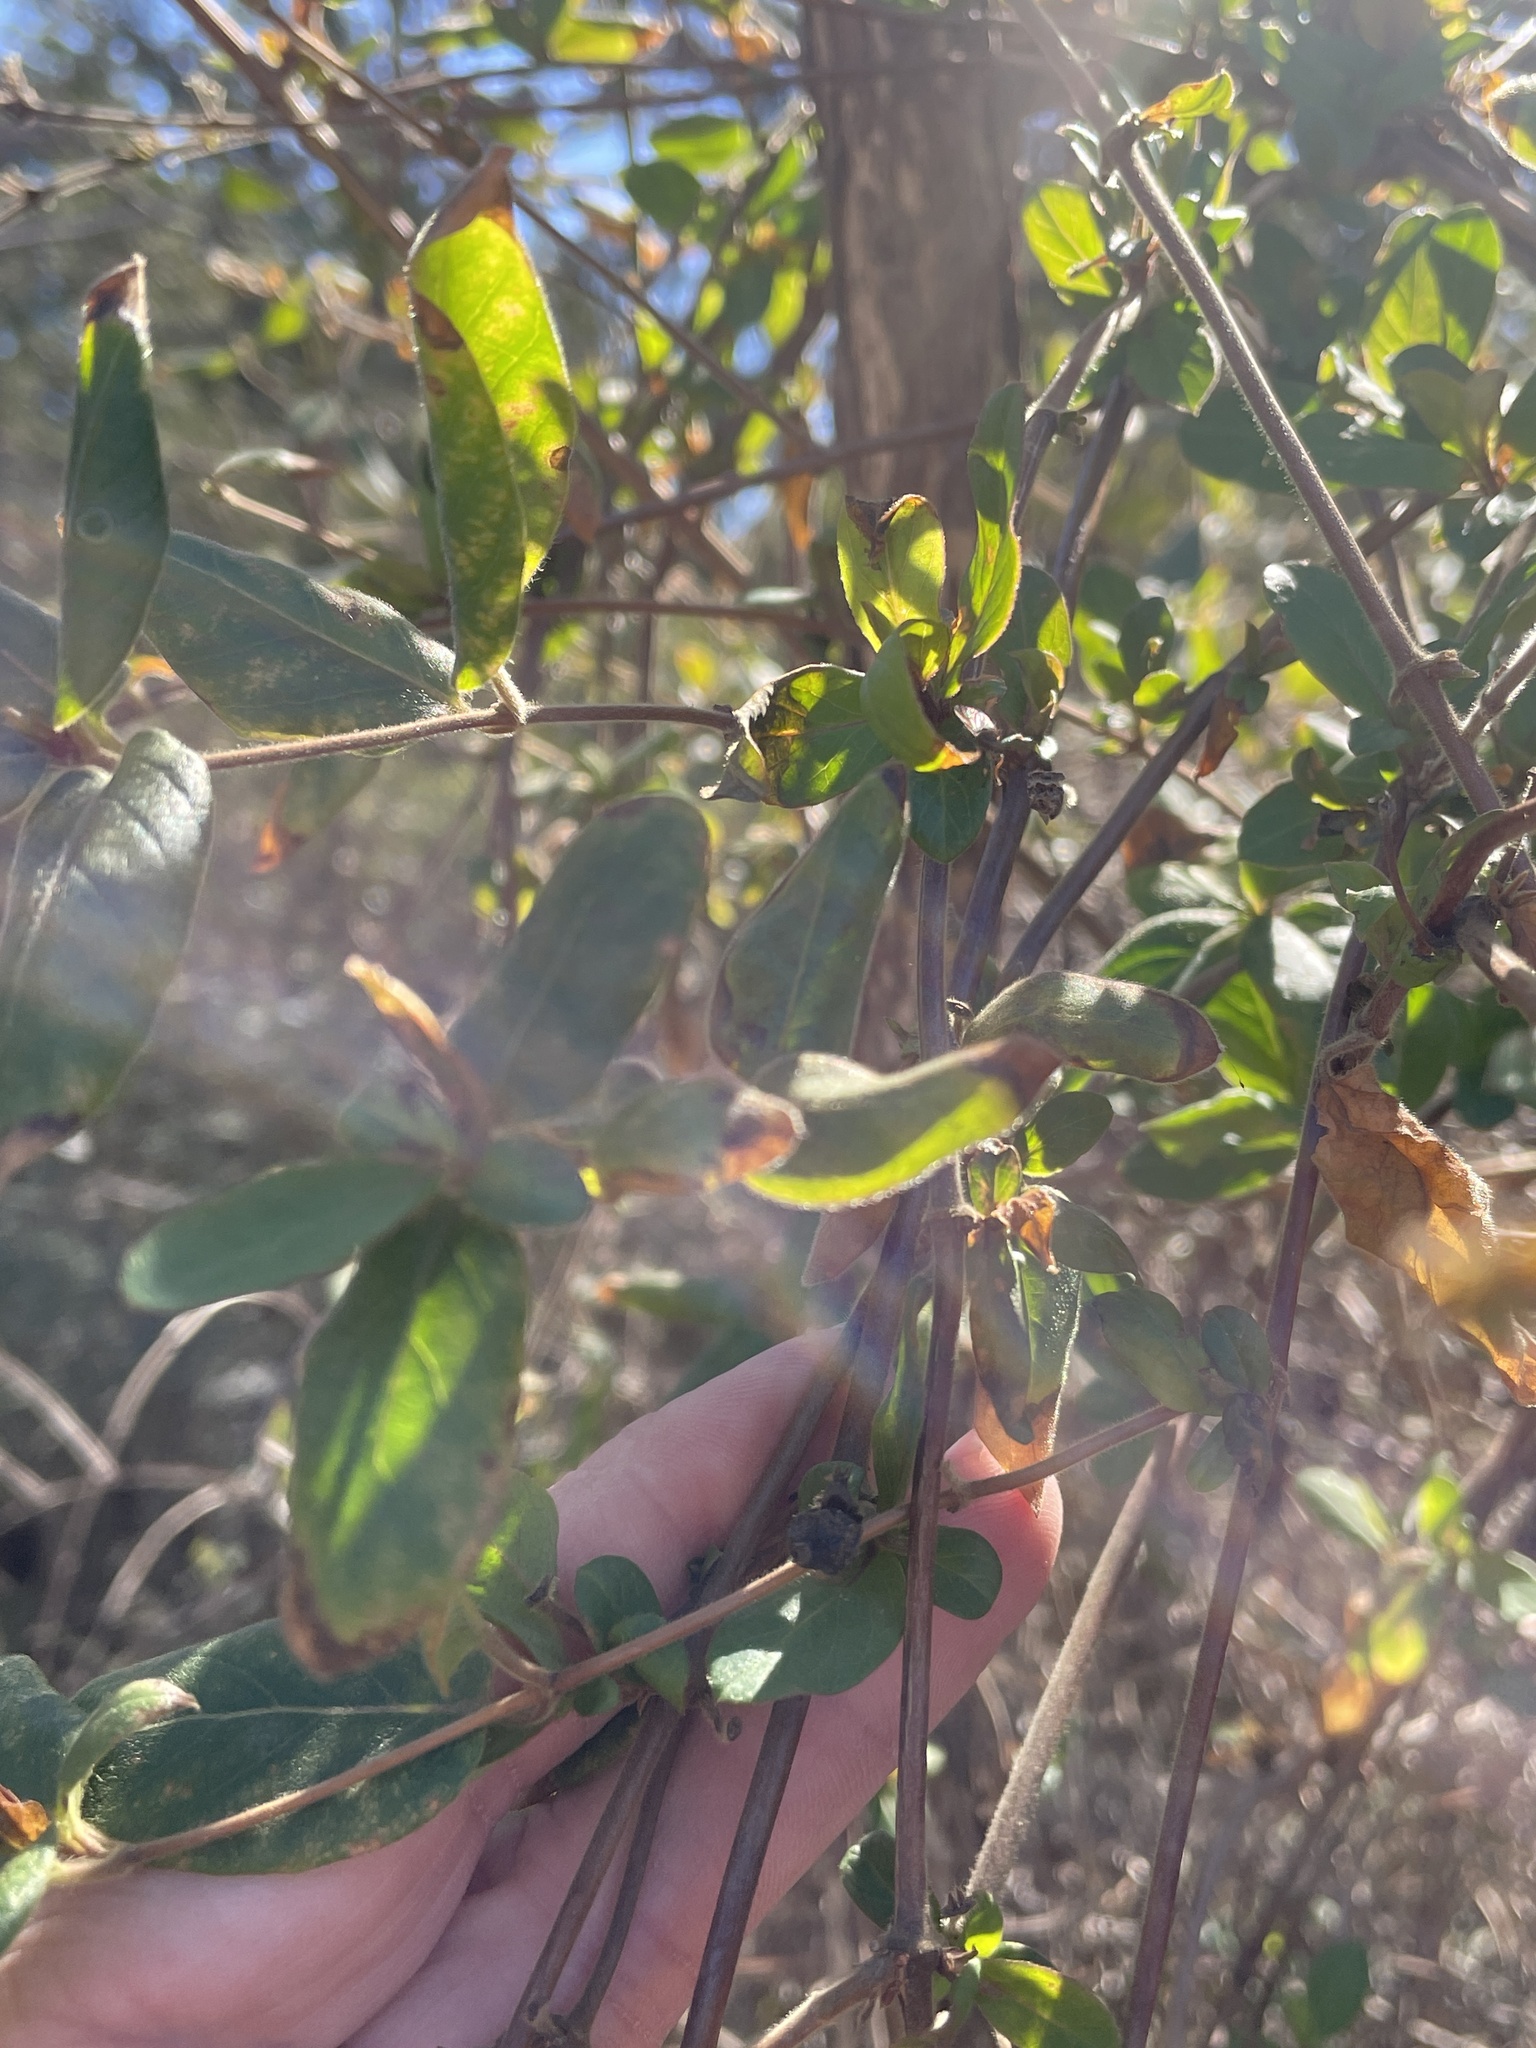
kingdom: Plantae
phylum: Tracheophyta
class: Magnoliopsida
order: Dipsacales
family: Caprifoliaceae
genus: Lonicera
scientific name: Lonicera japonica
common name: Japanese honeysuckle
